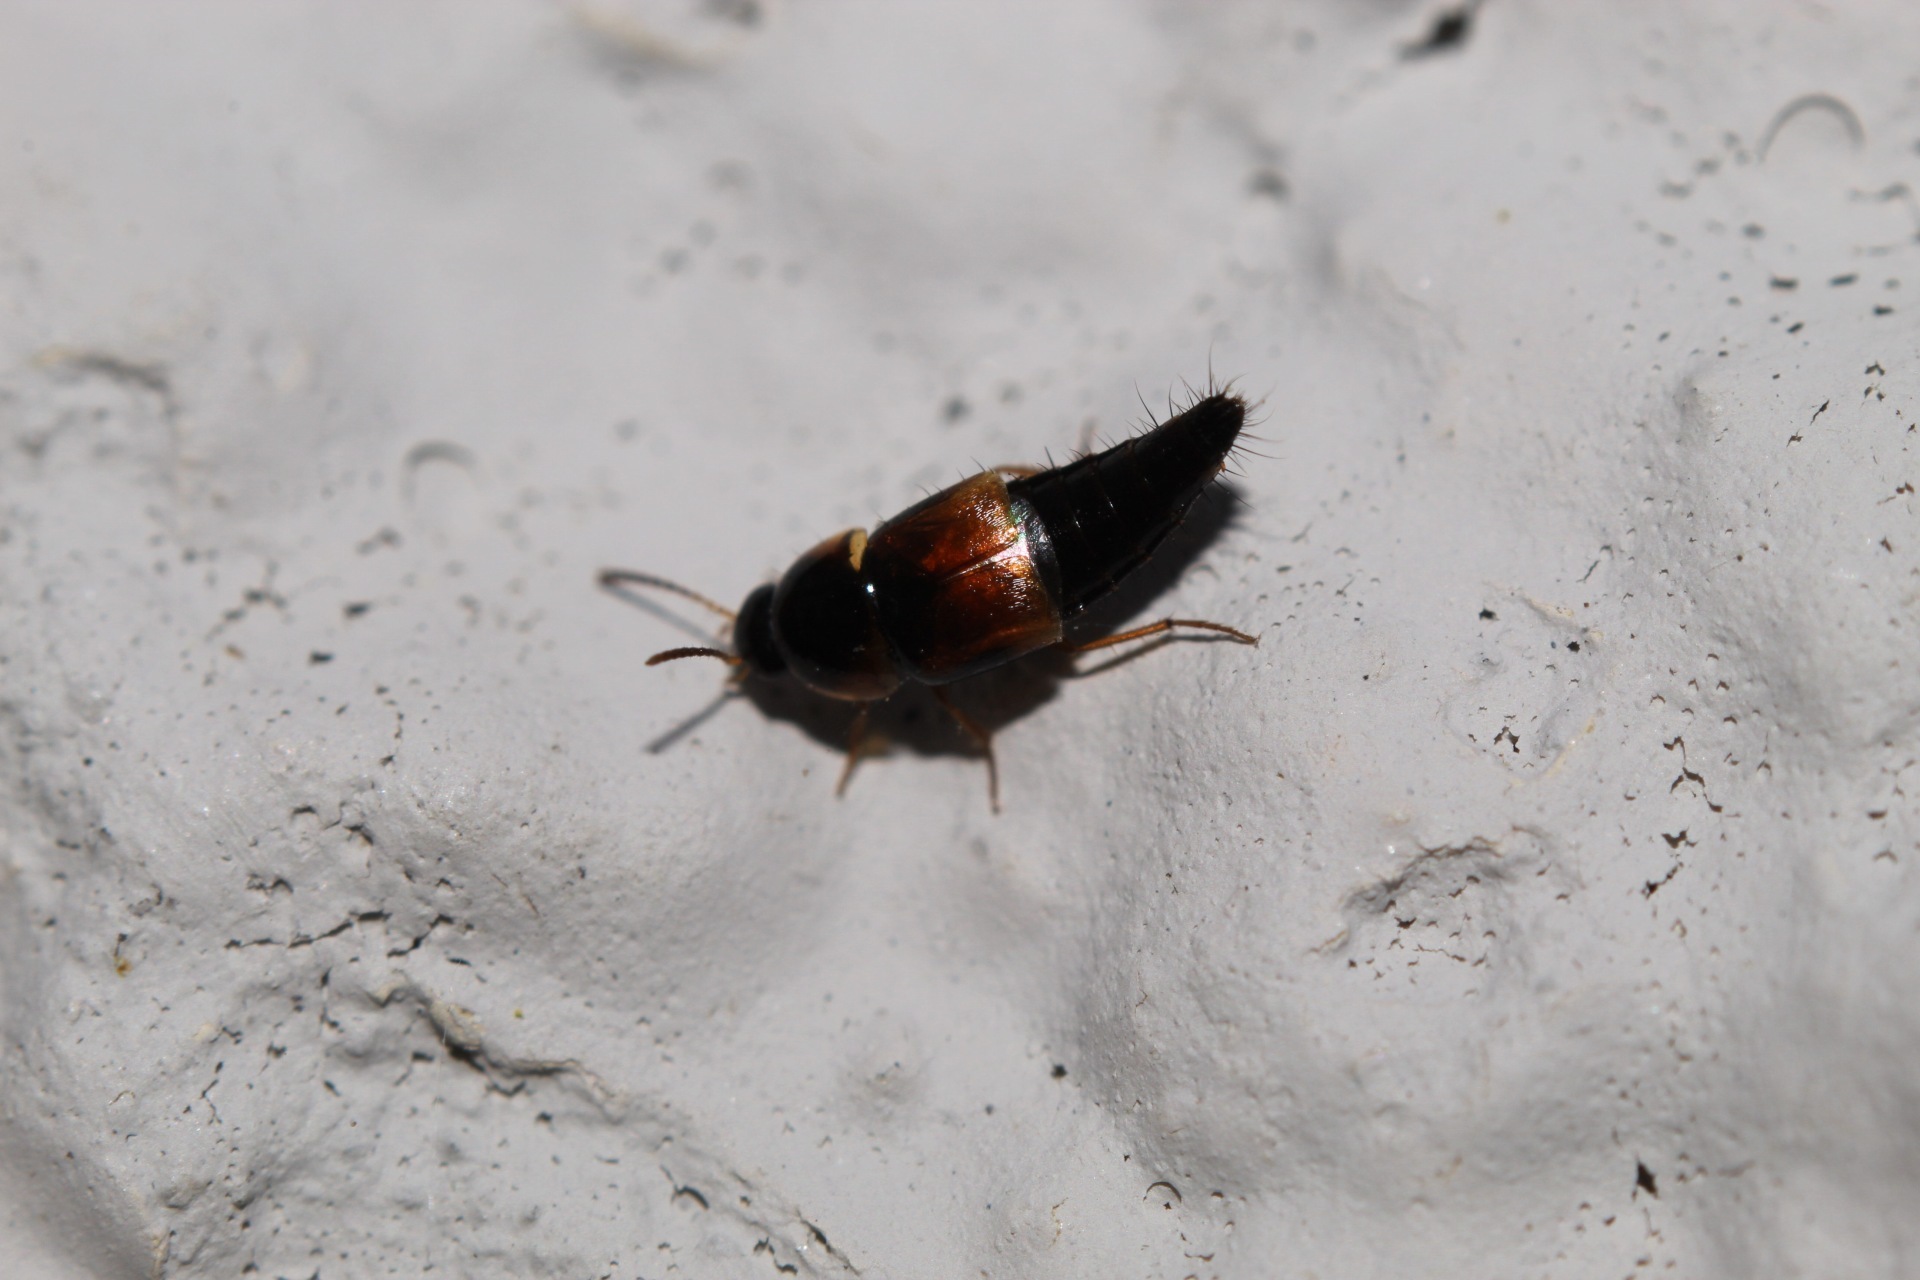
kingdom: Animalia
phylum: Arthropoda
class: Insecta
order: Coleoptera
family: Staphylinidae
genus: Tachyporus
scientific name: Tachyporus hypnorum
